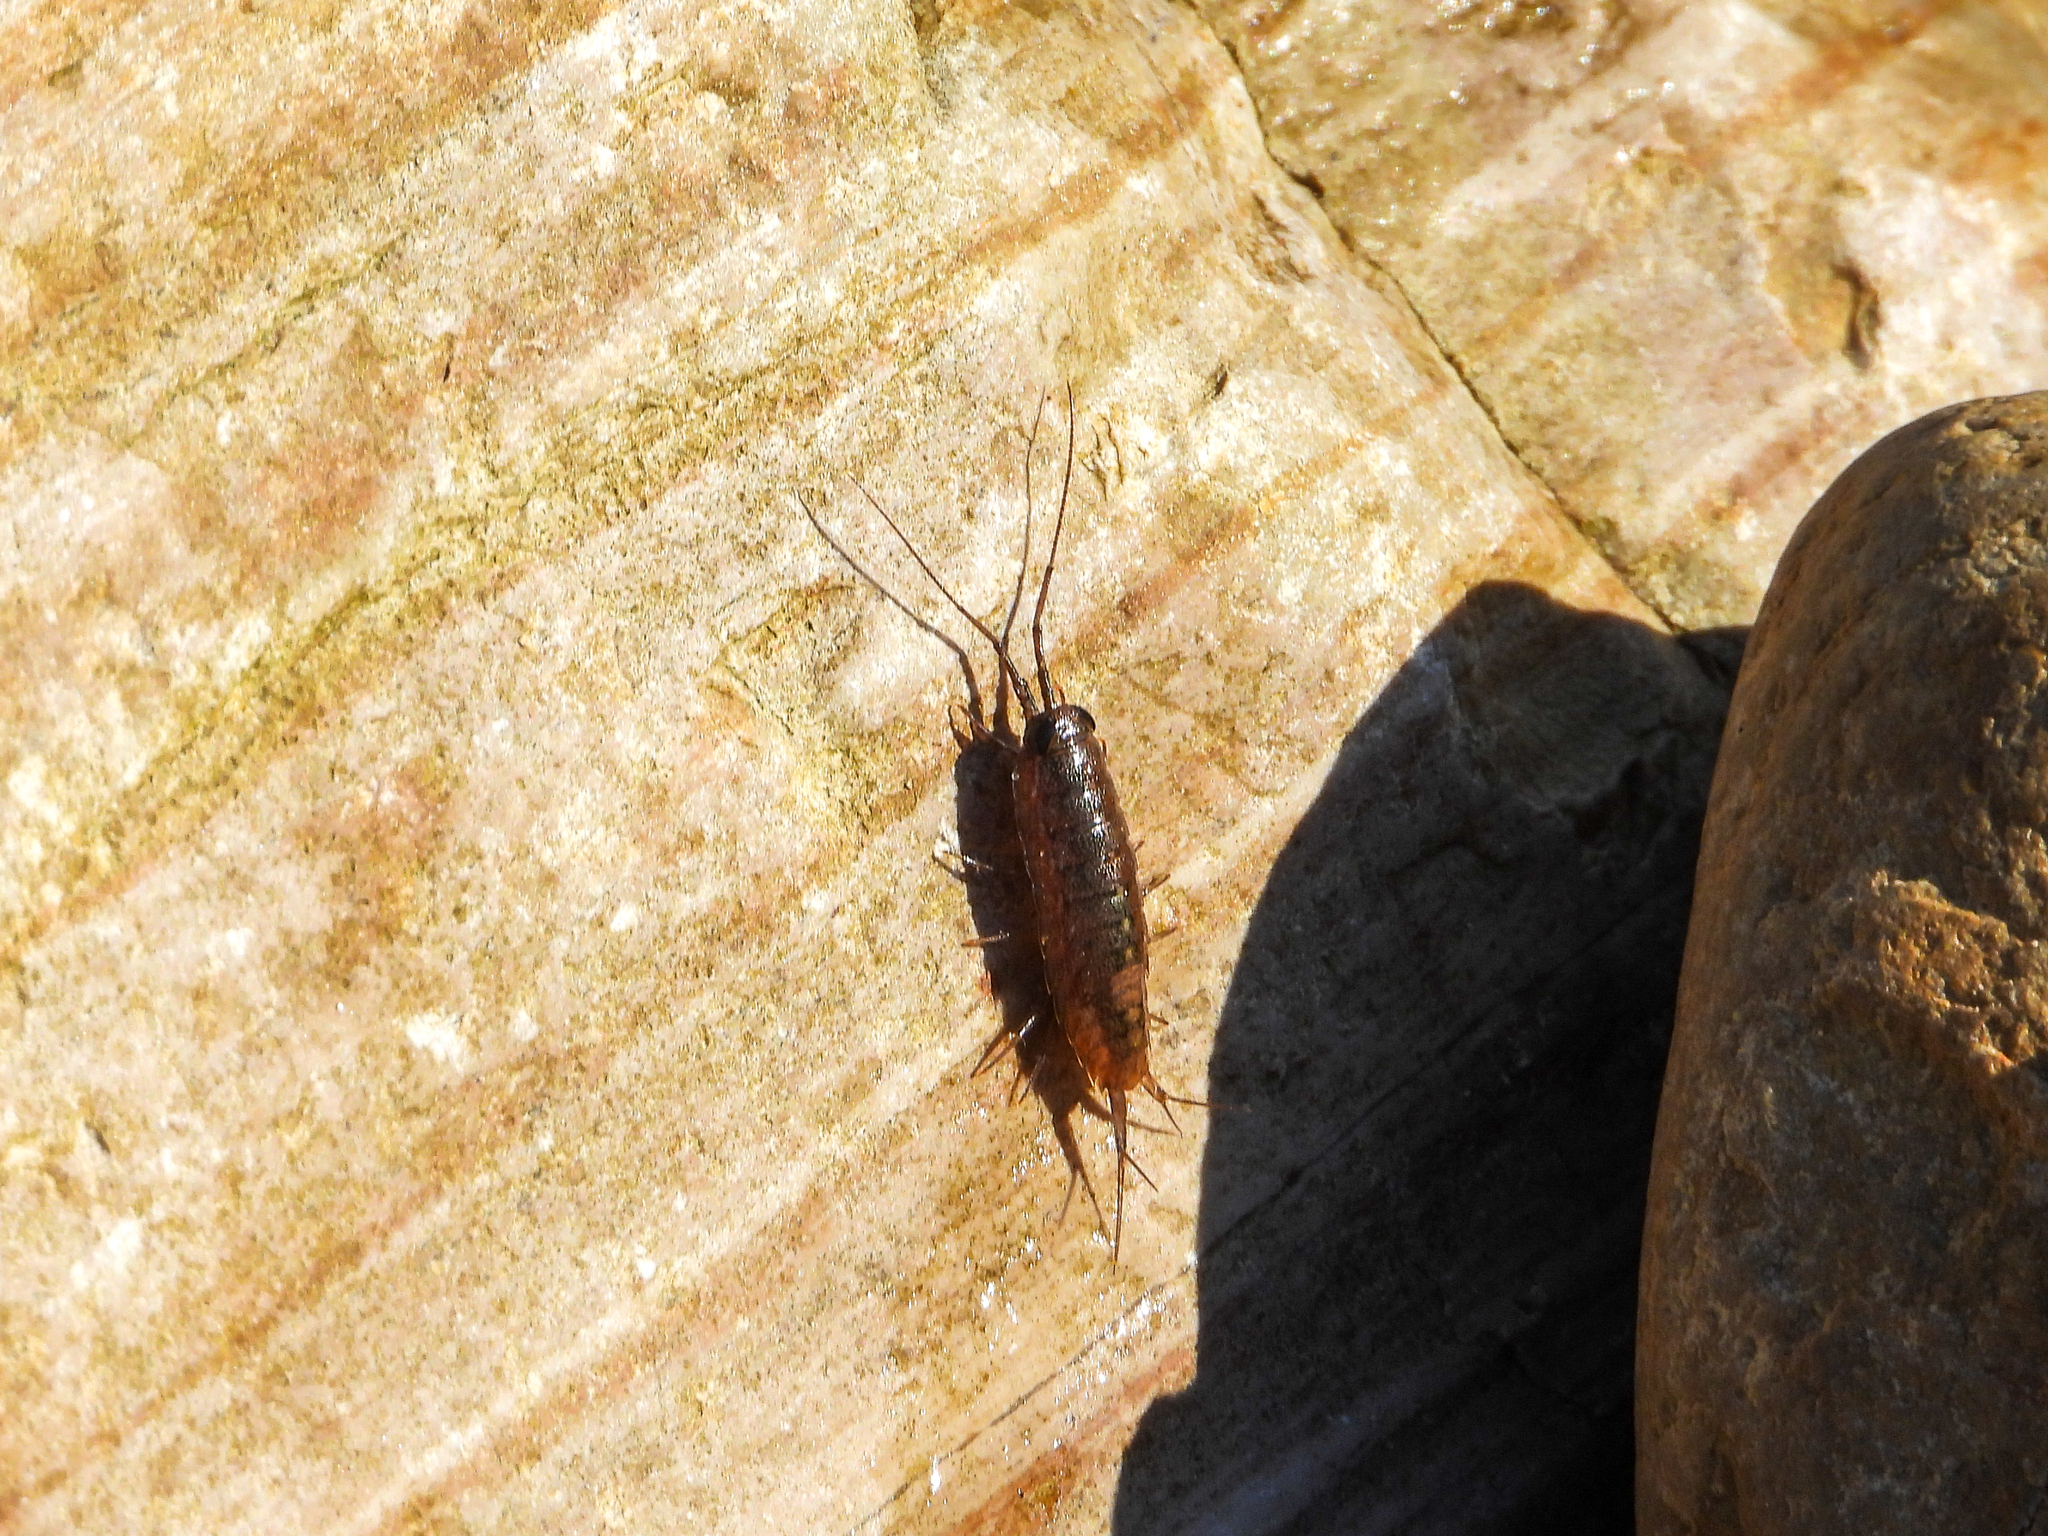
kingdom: Animalia
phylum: Arthropoda
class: Malacostraca
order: Isopoda
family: Ligiidae
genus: Ligia
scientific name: Ligia occidentalis
